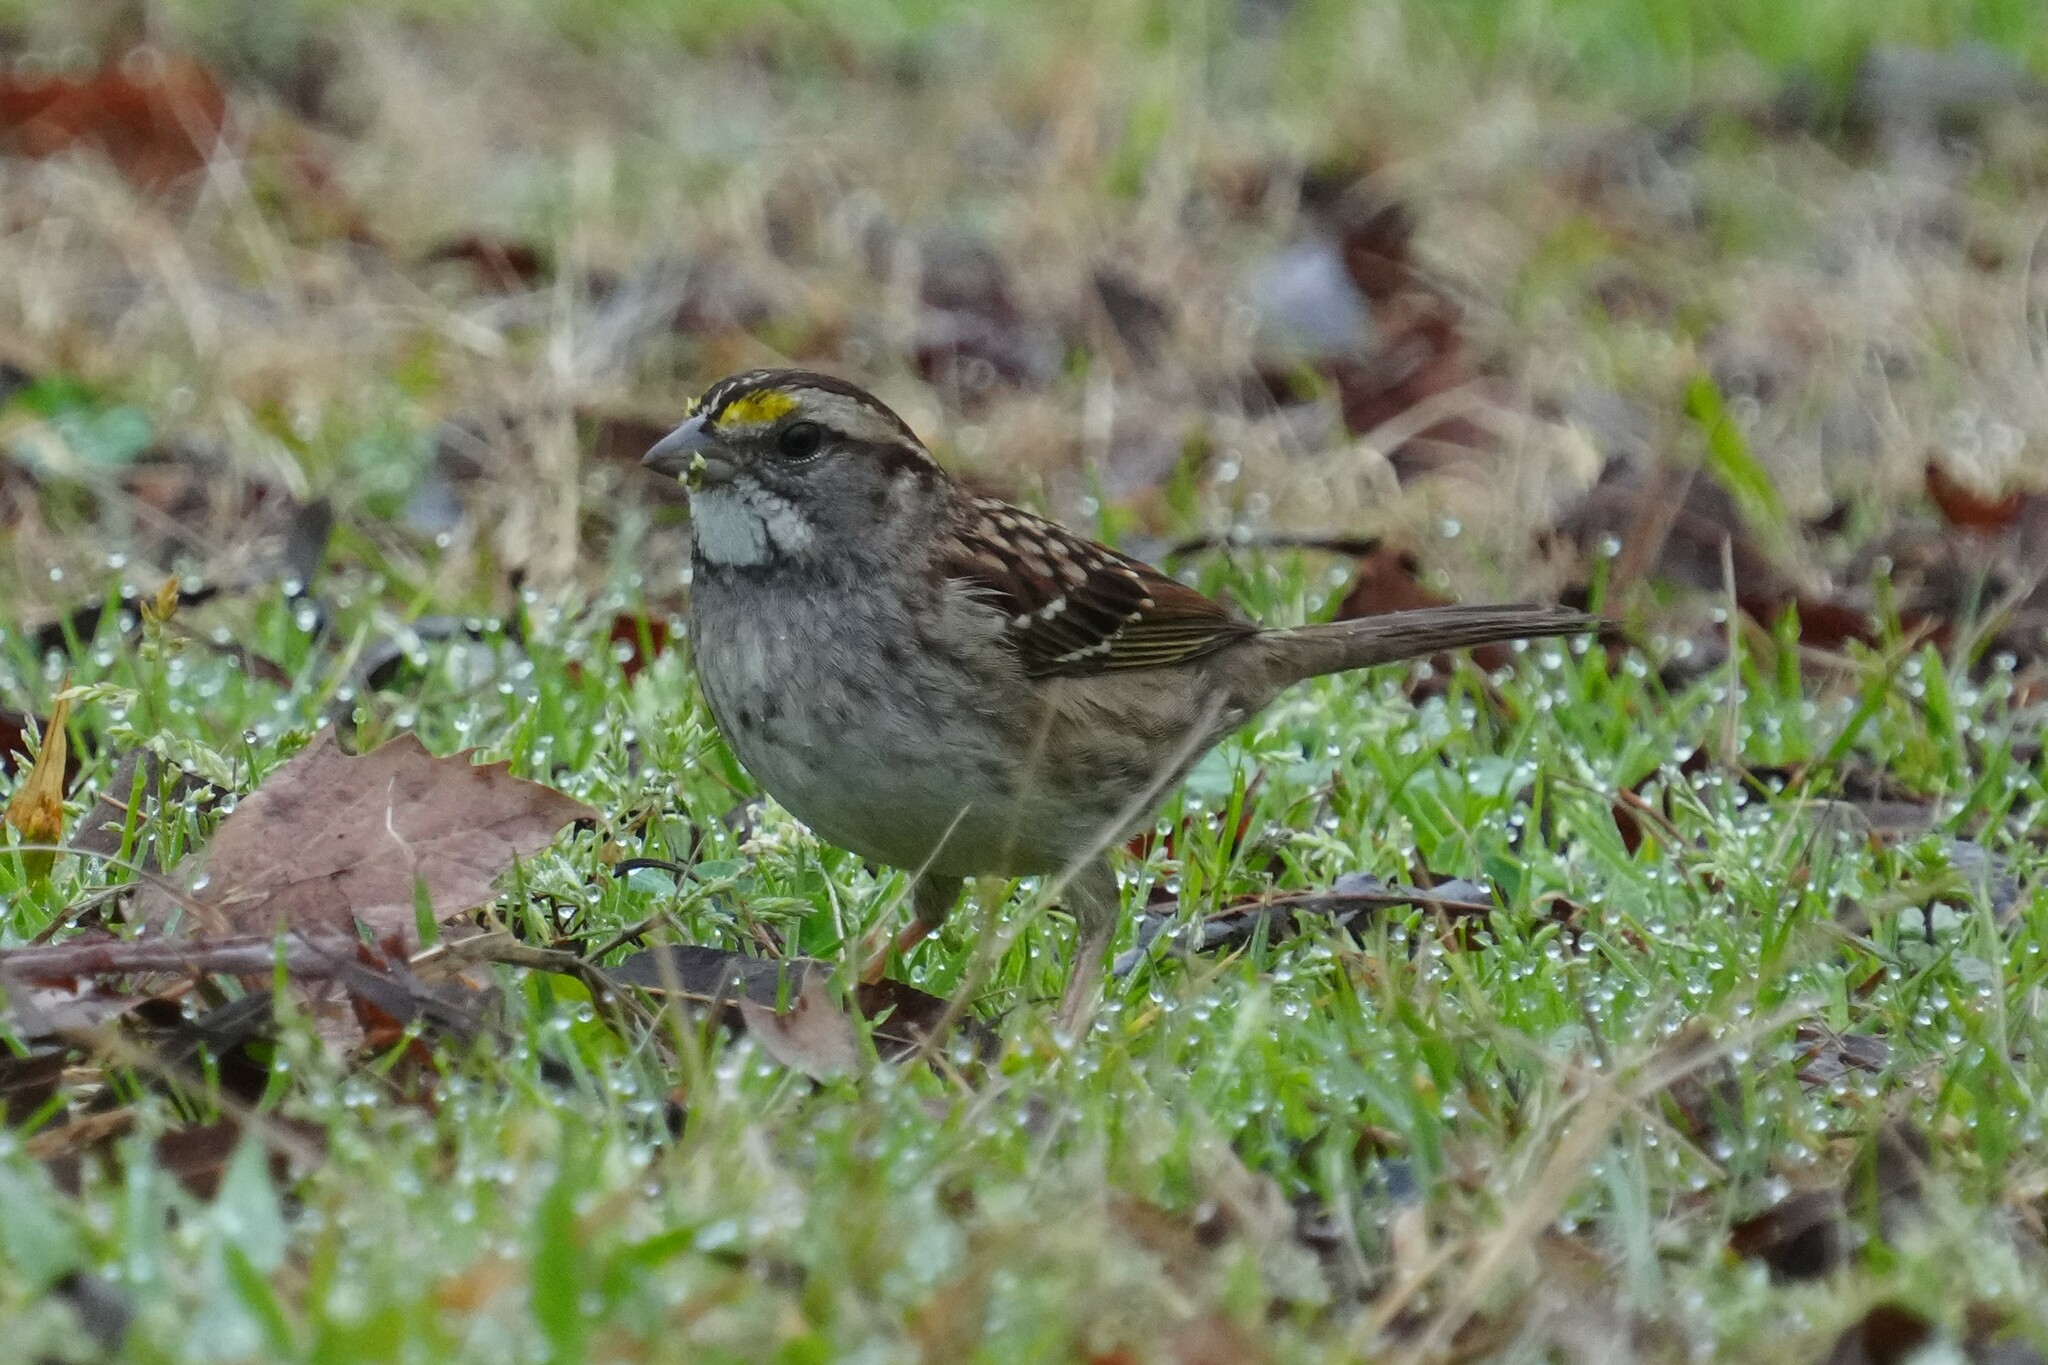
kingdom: Animalia
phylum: Chordata
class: Aves
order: Passeriformes
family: Passerellidae
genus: Zonotrichia
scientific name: Zonotrichia albicollis
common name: White-throated sparrow
